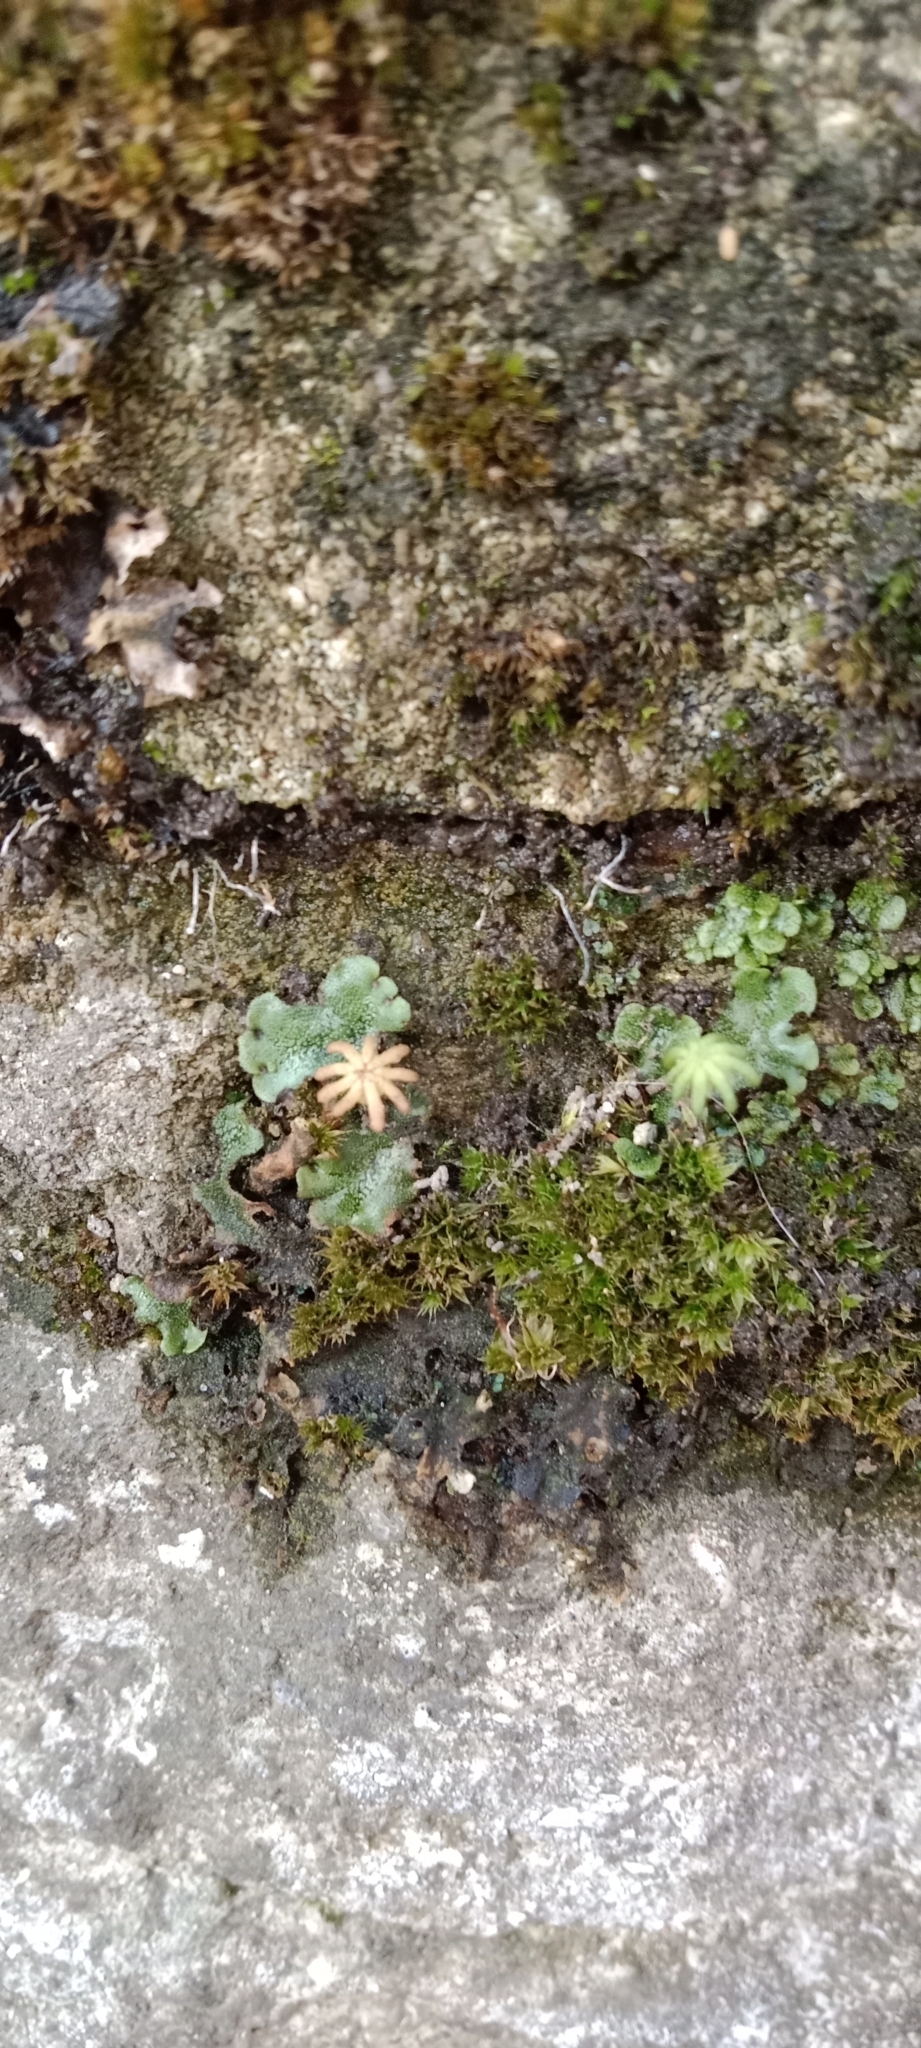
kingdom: Plantae
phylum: Marchantiophyta
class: Marchantiopsida
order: Marchantiales
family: Marchantiaceae
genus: Marchantia
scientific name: Marchantia polymorpha
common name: Common liverwort
